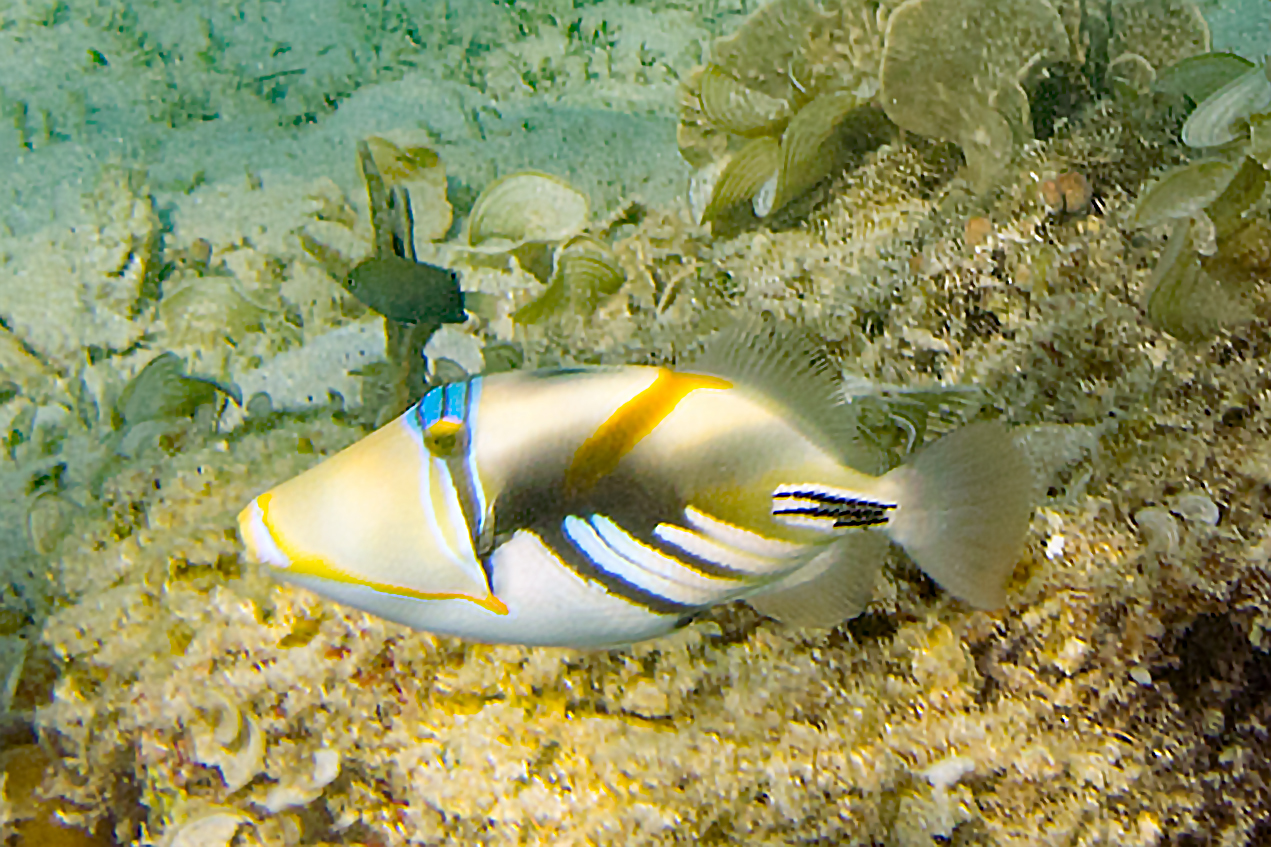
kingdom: Animalia
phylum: Chordata
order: Tetraodontiformes
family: Balistidae
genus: Rhinecanthus
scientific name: Rhinecanthus aculeatus
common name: White-banded triggerfish
